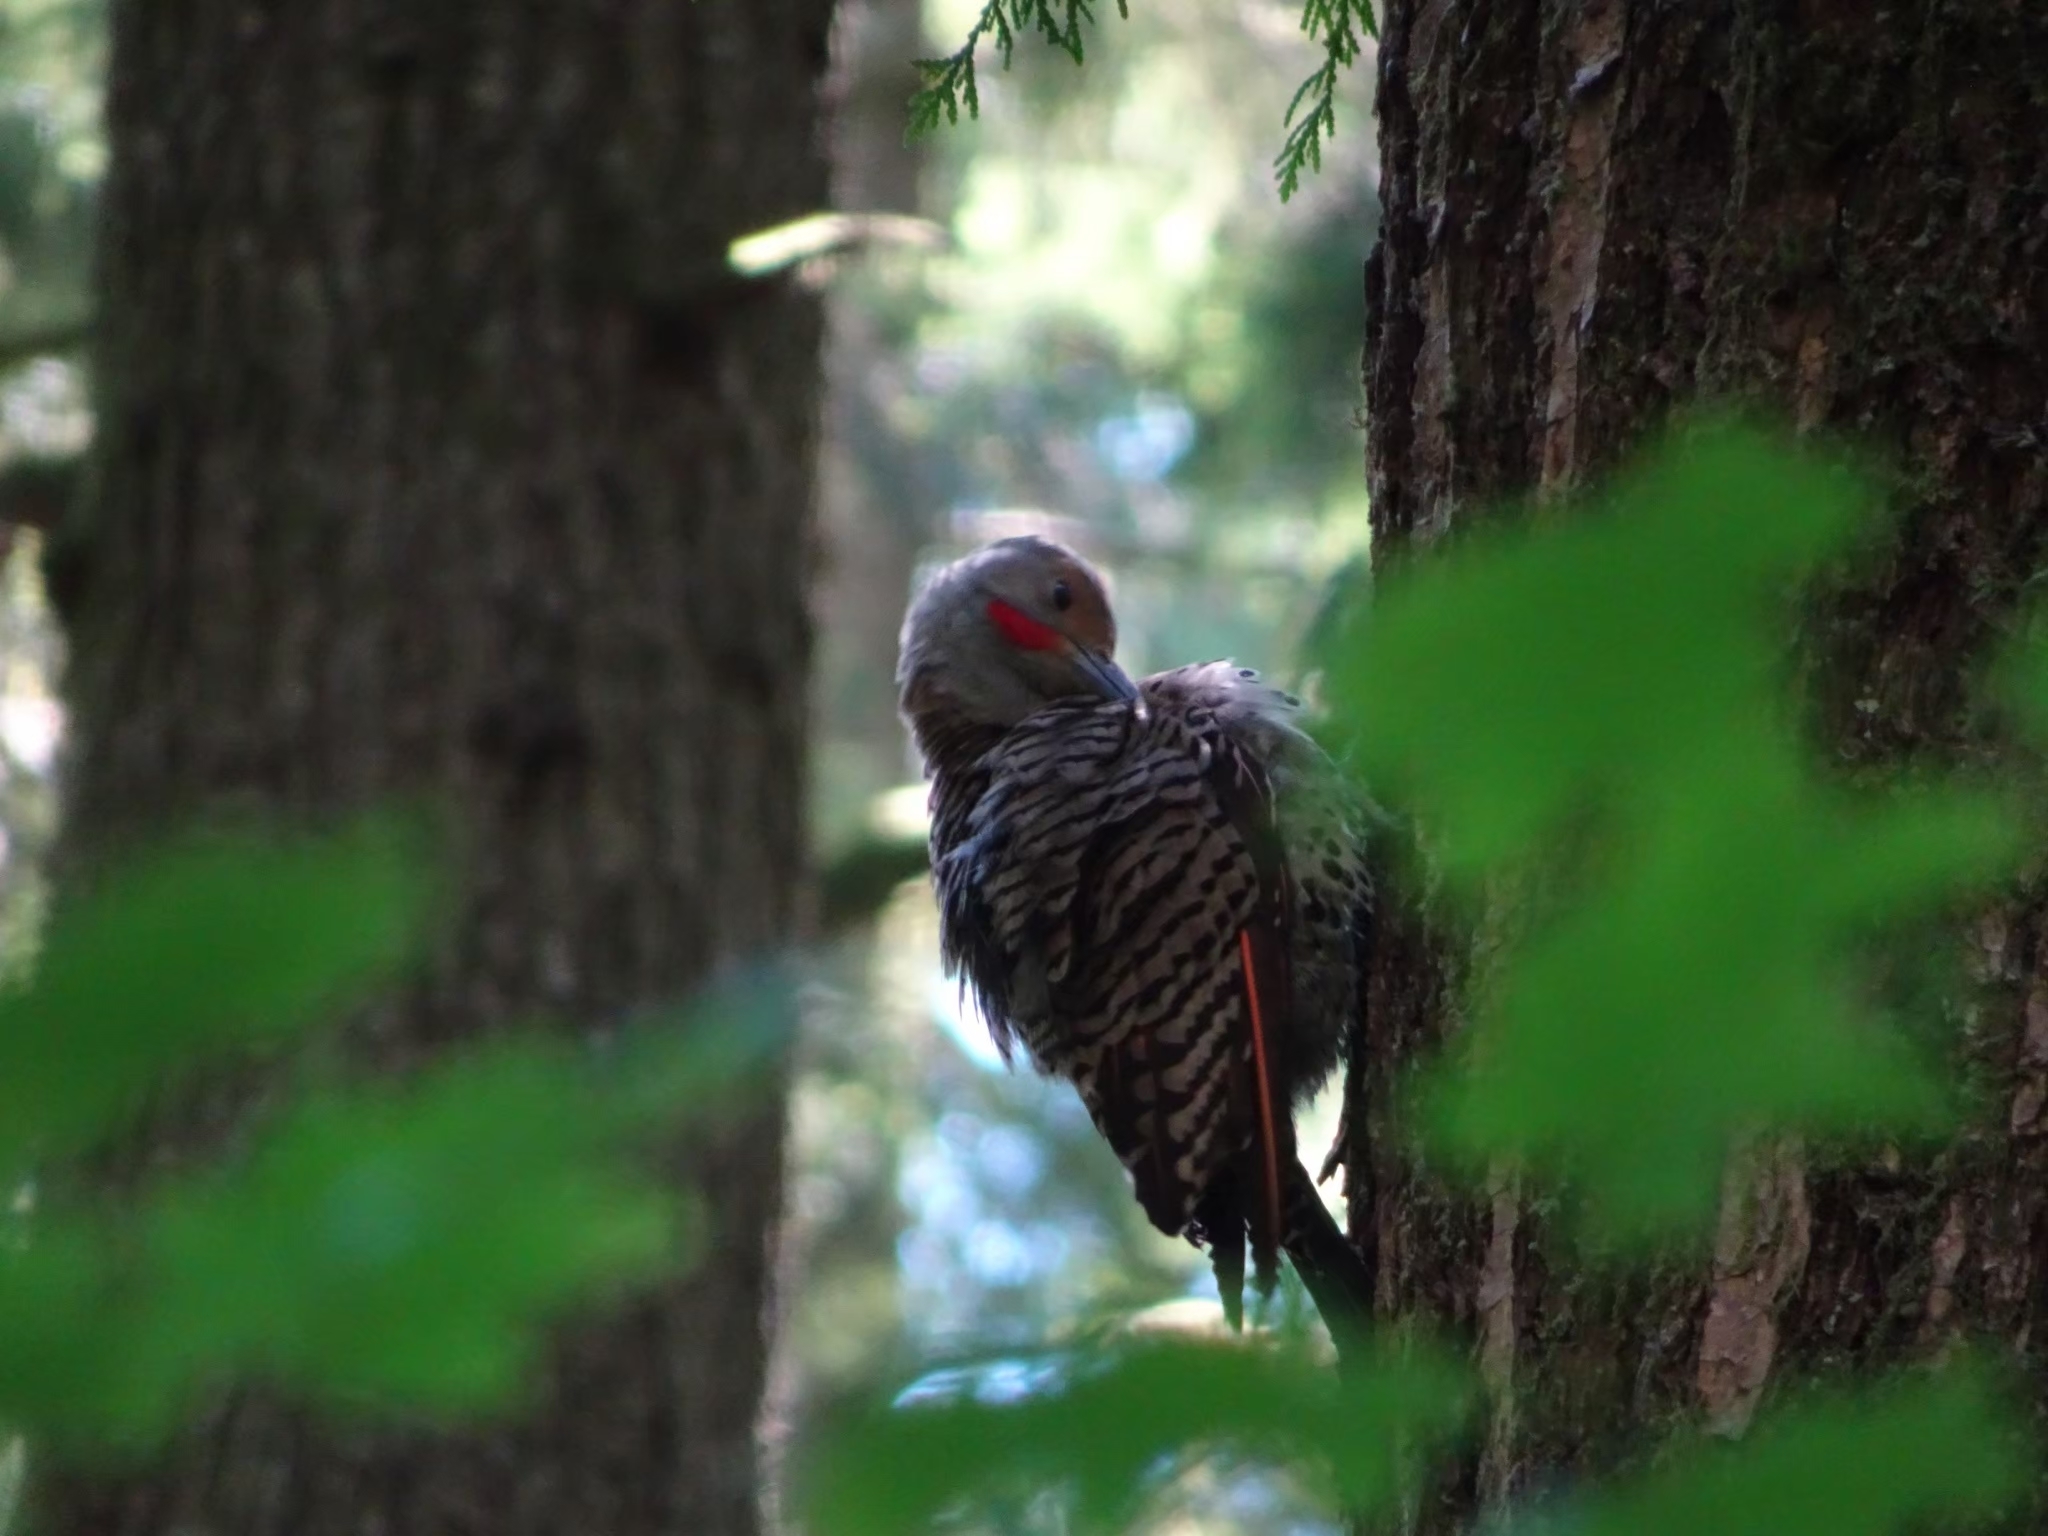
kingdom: Animalia
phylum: Chordata
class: Aves
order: Piciformes
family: Picidae
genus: Colaptes
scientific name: Colaptes auratus
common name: Northern flicker
